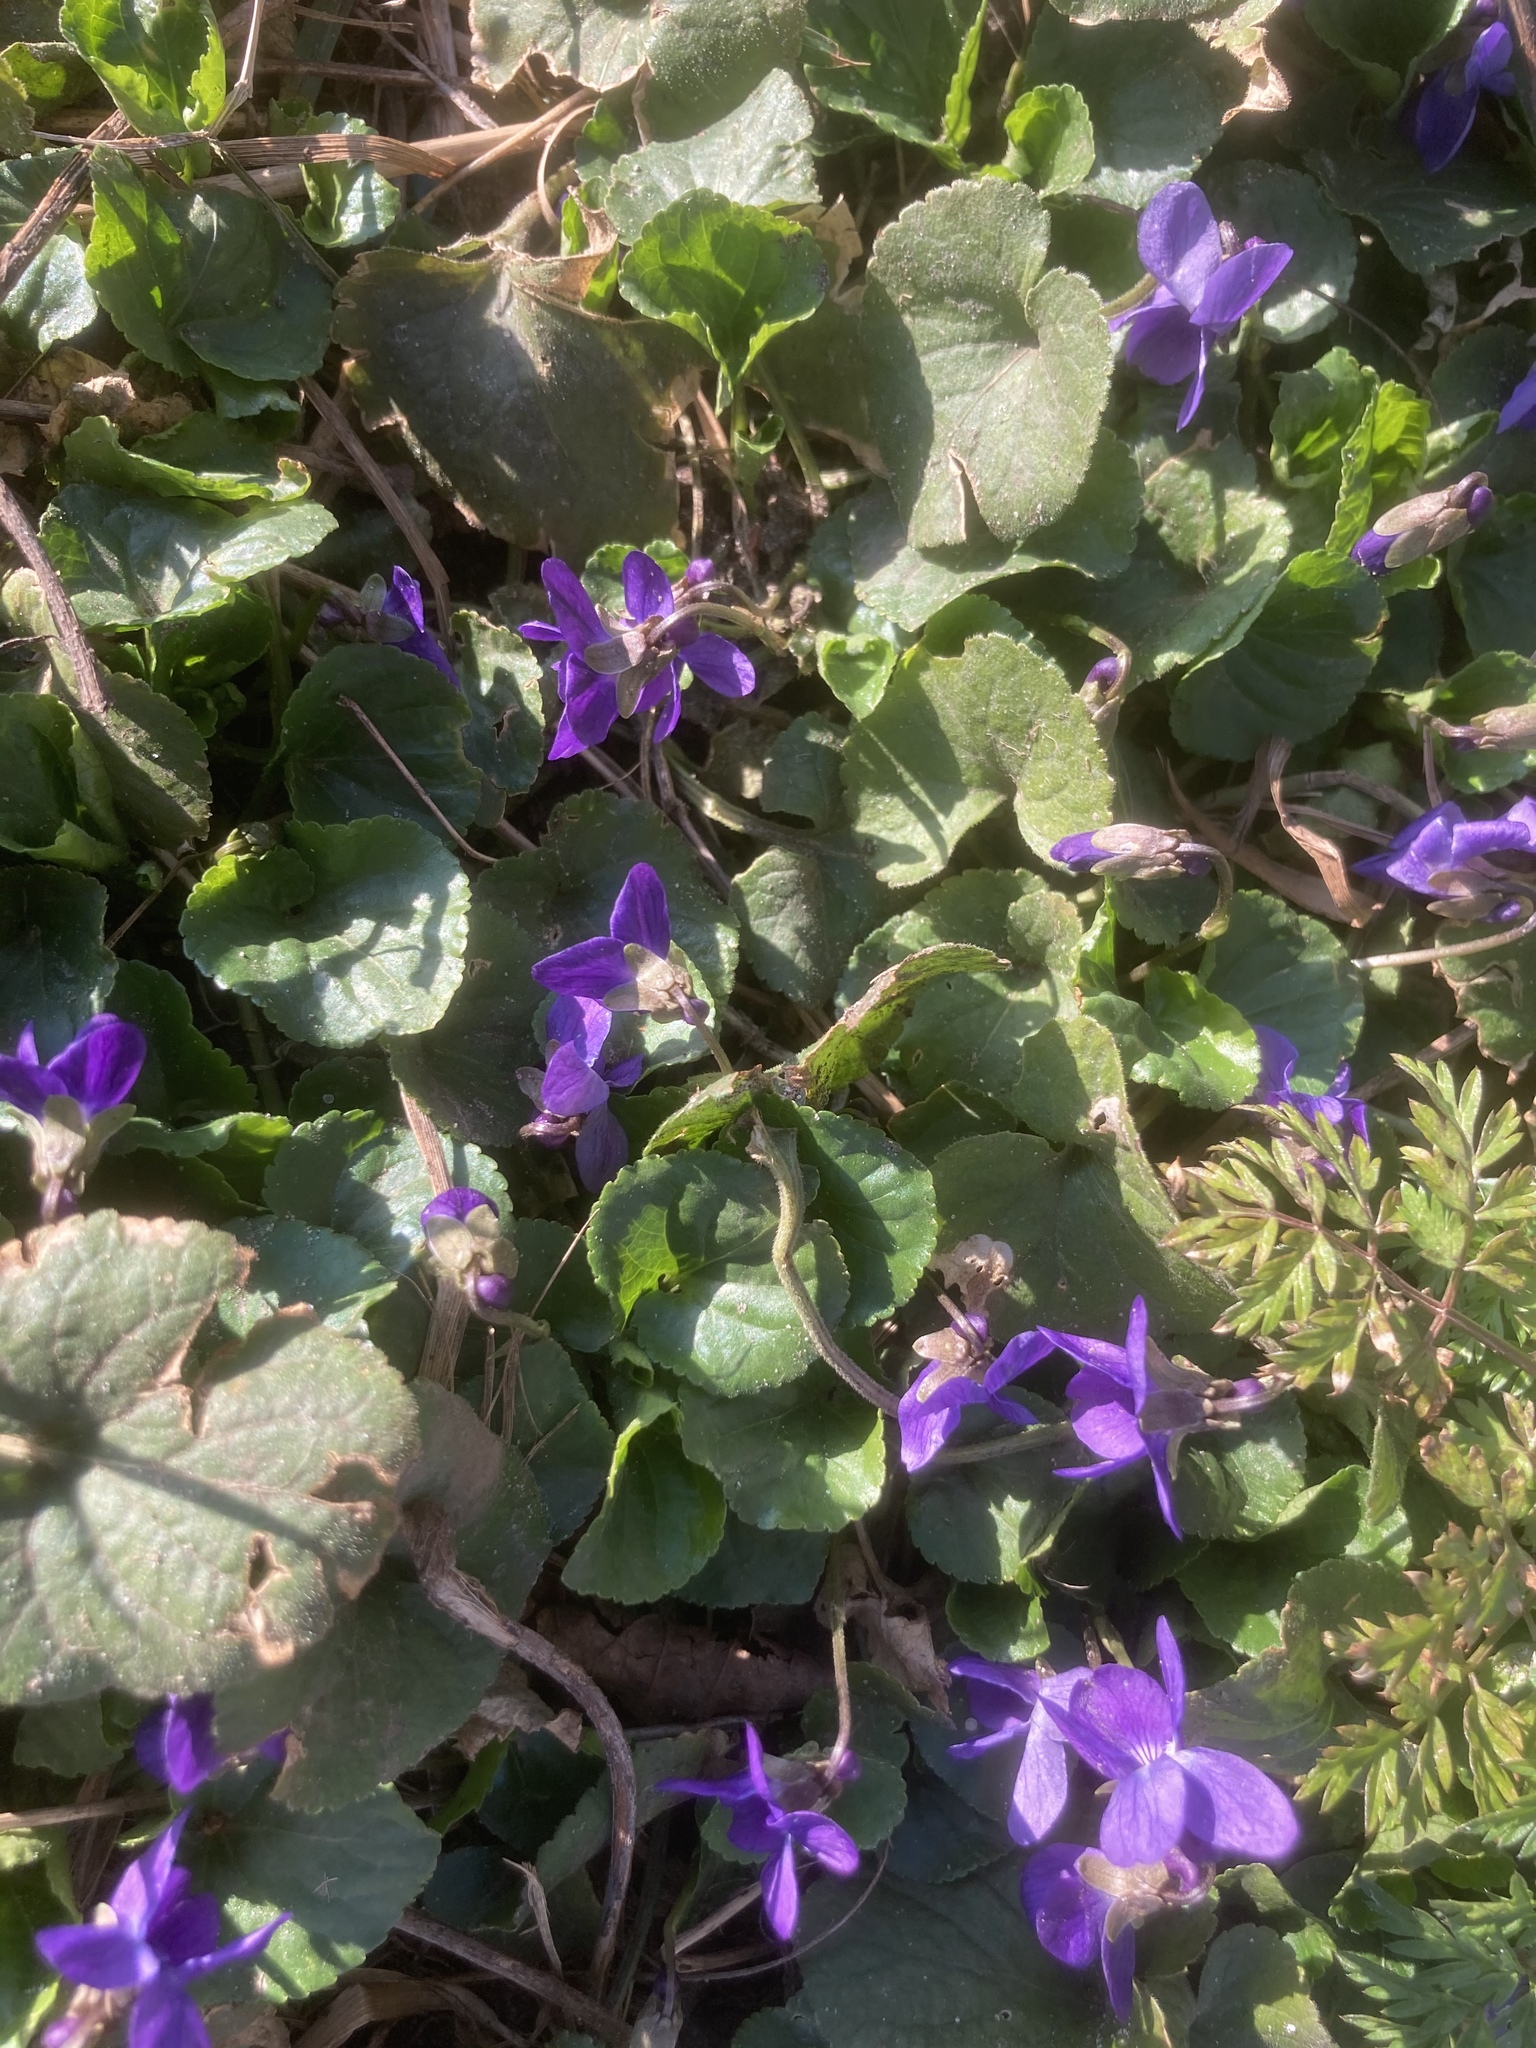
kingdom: Plantae
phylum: Tracheophyta
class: Magnoliopsida
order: Malpighiales
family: Violaceae
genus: Viola
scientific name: Viola odorata
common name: Sweet violet
